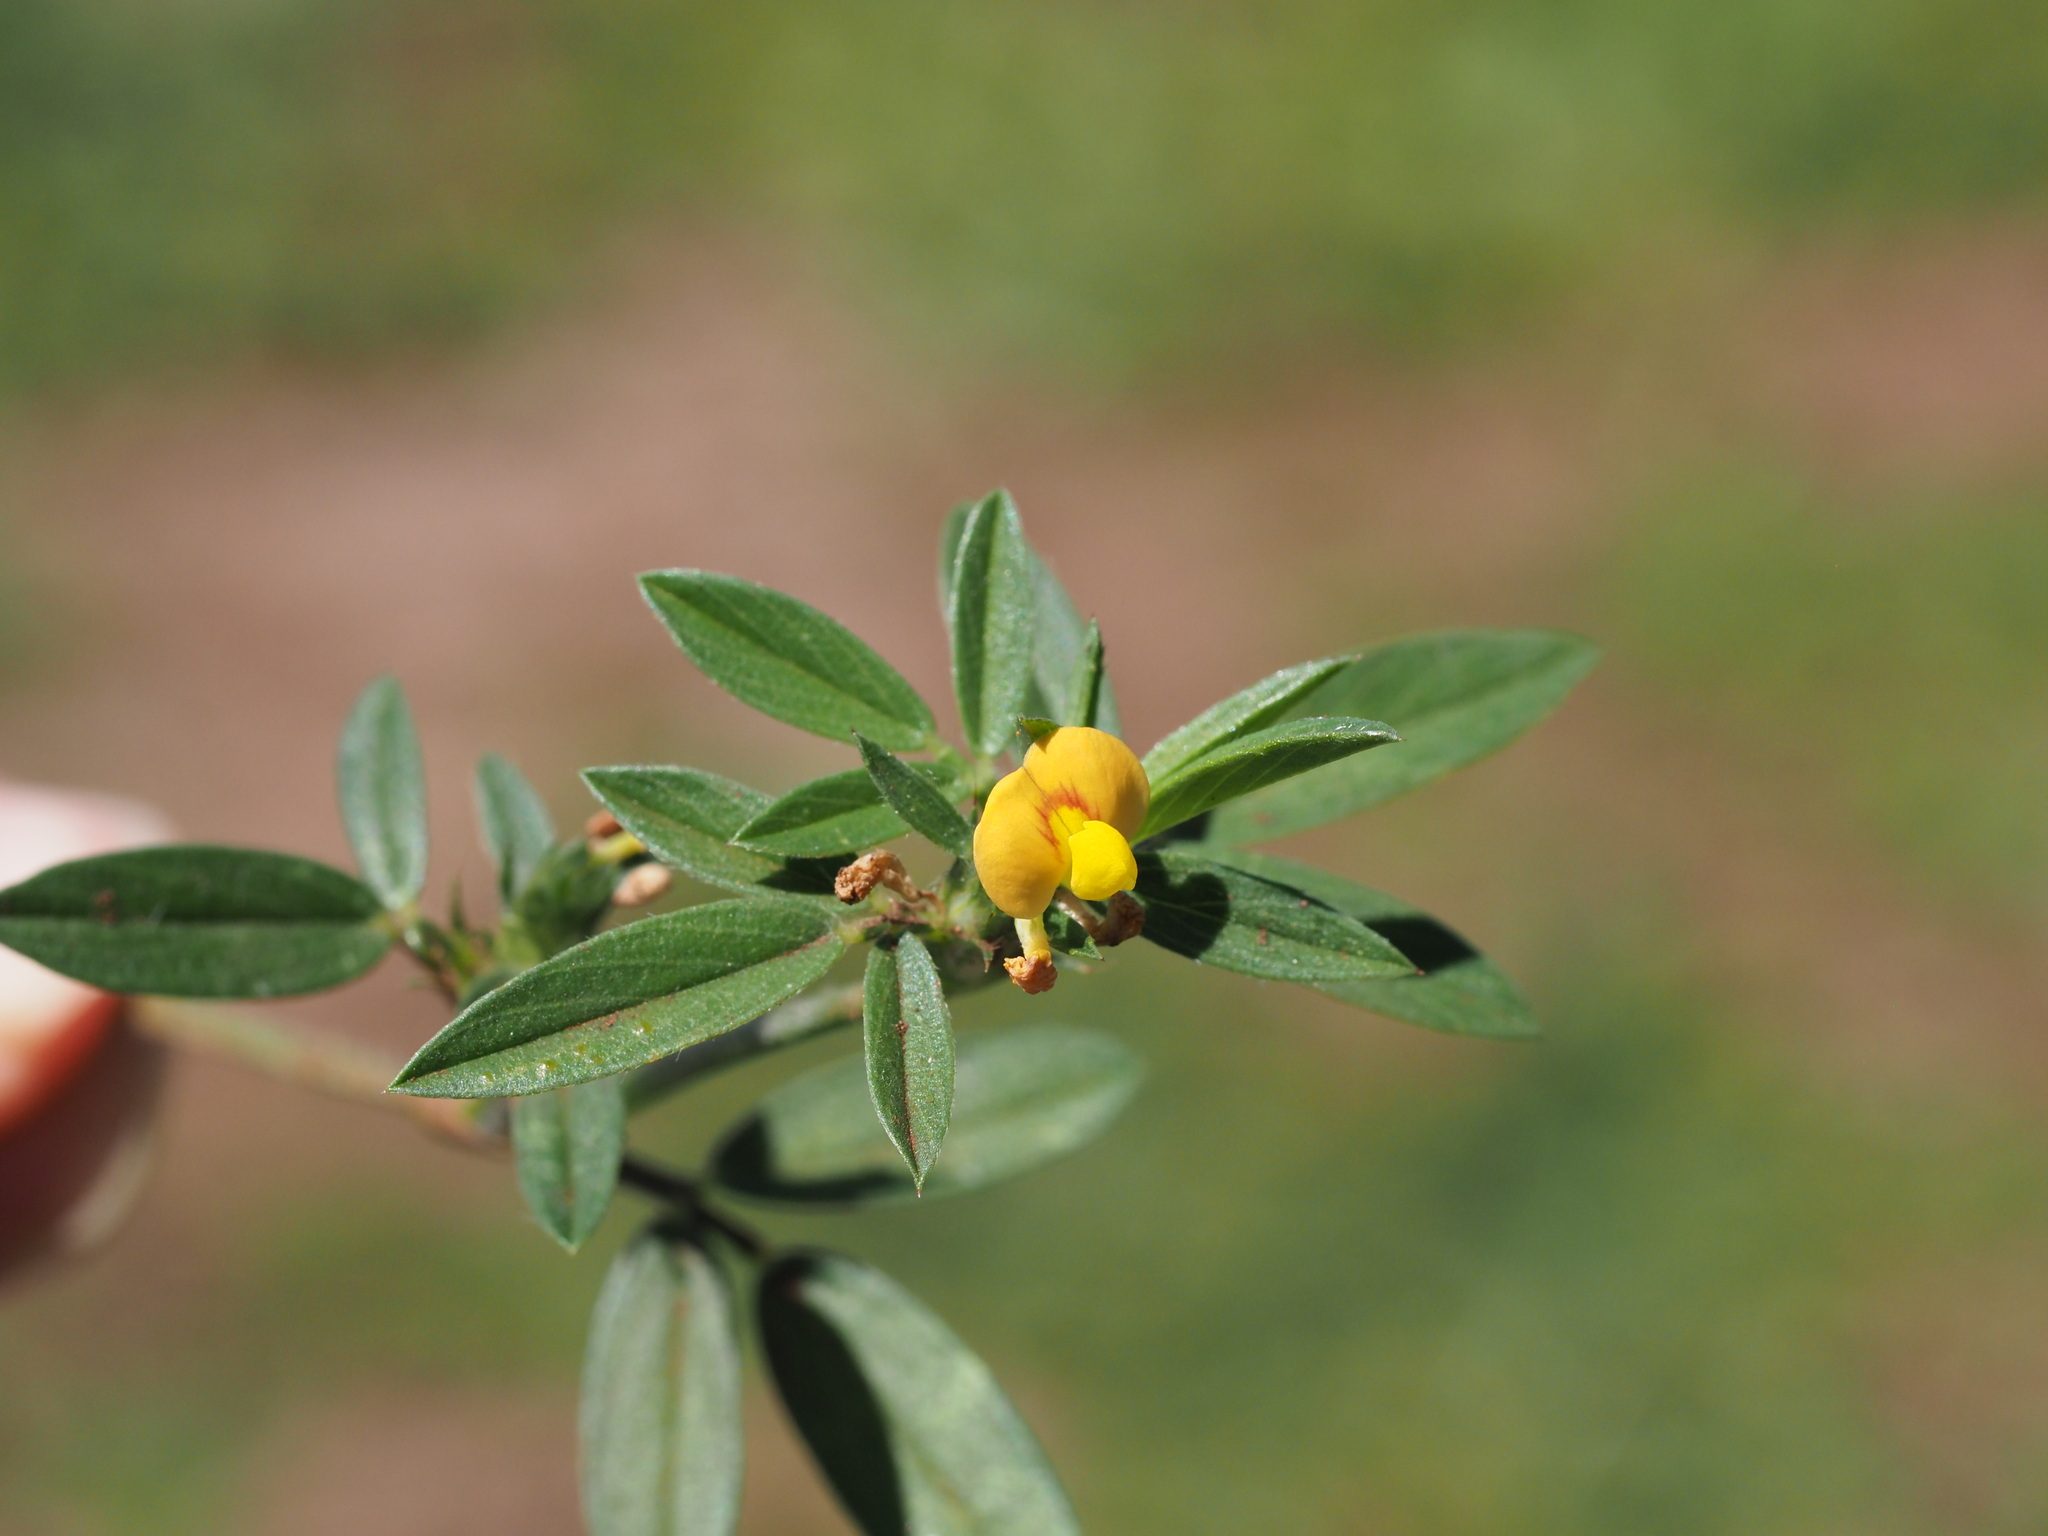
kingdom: Plantae
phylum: Tracheophyta
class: Magnoliopsida
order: Fabales
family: Fabaceae
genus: Stylosanthes
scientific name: Stylosanthes scabra
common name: Pencilflower
